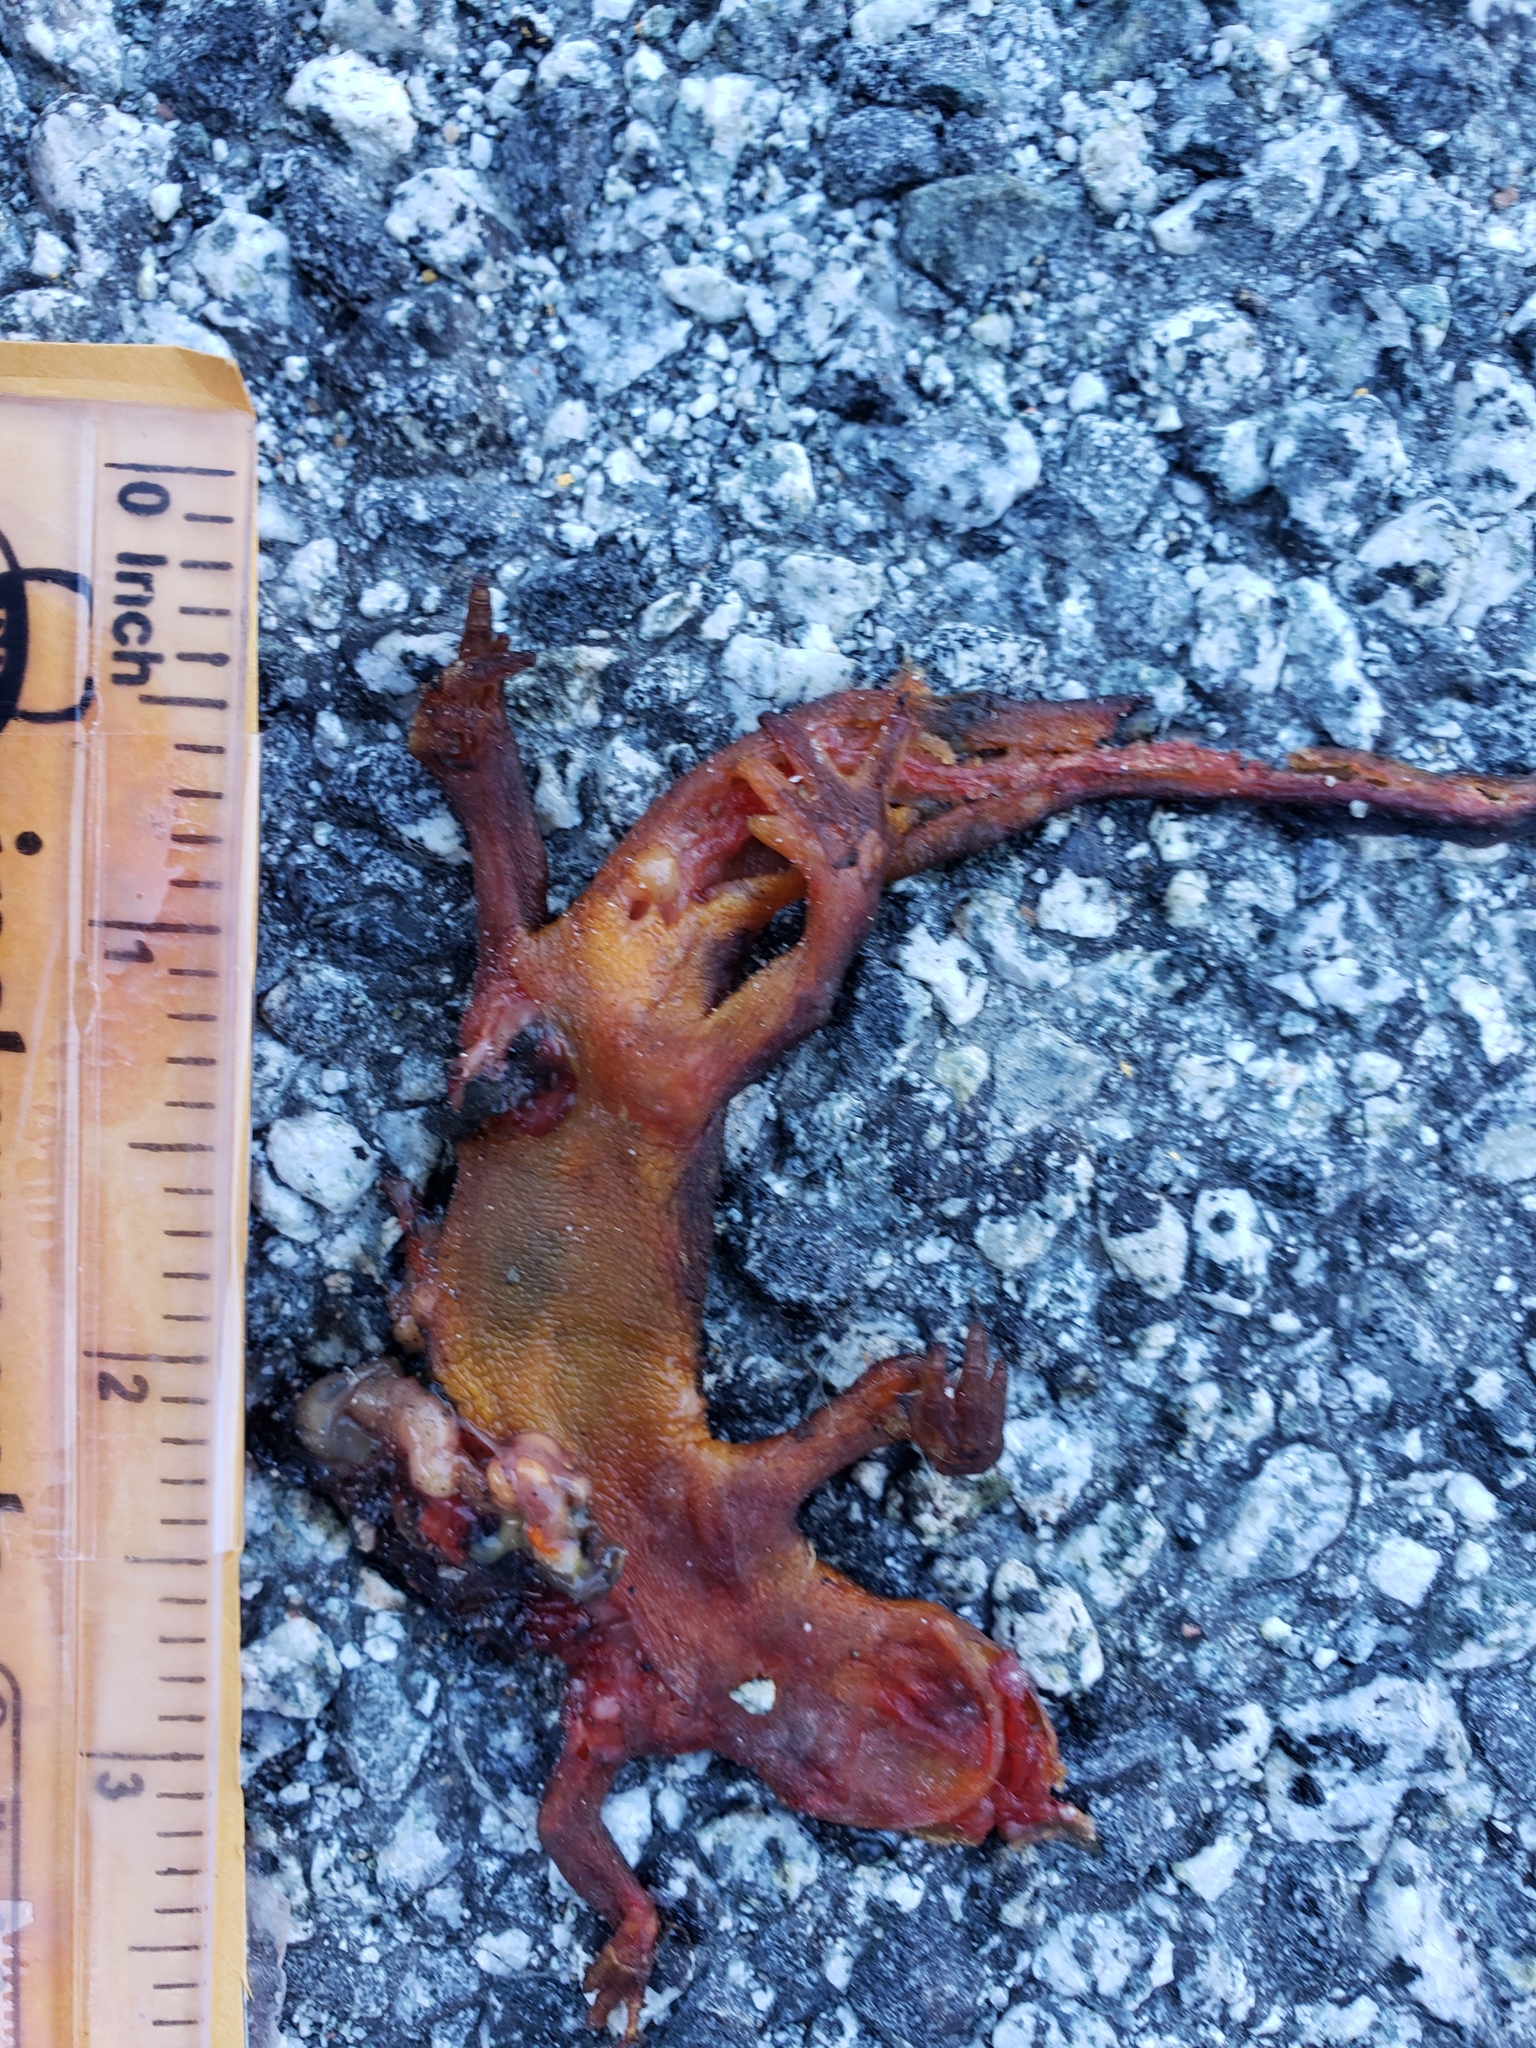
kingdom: Animalia
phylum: Chordata
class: Amphibia
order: Caudata
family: Salamandridae
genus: Taricha
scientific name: Taricha
